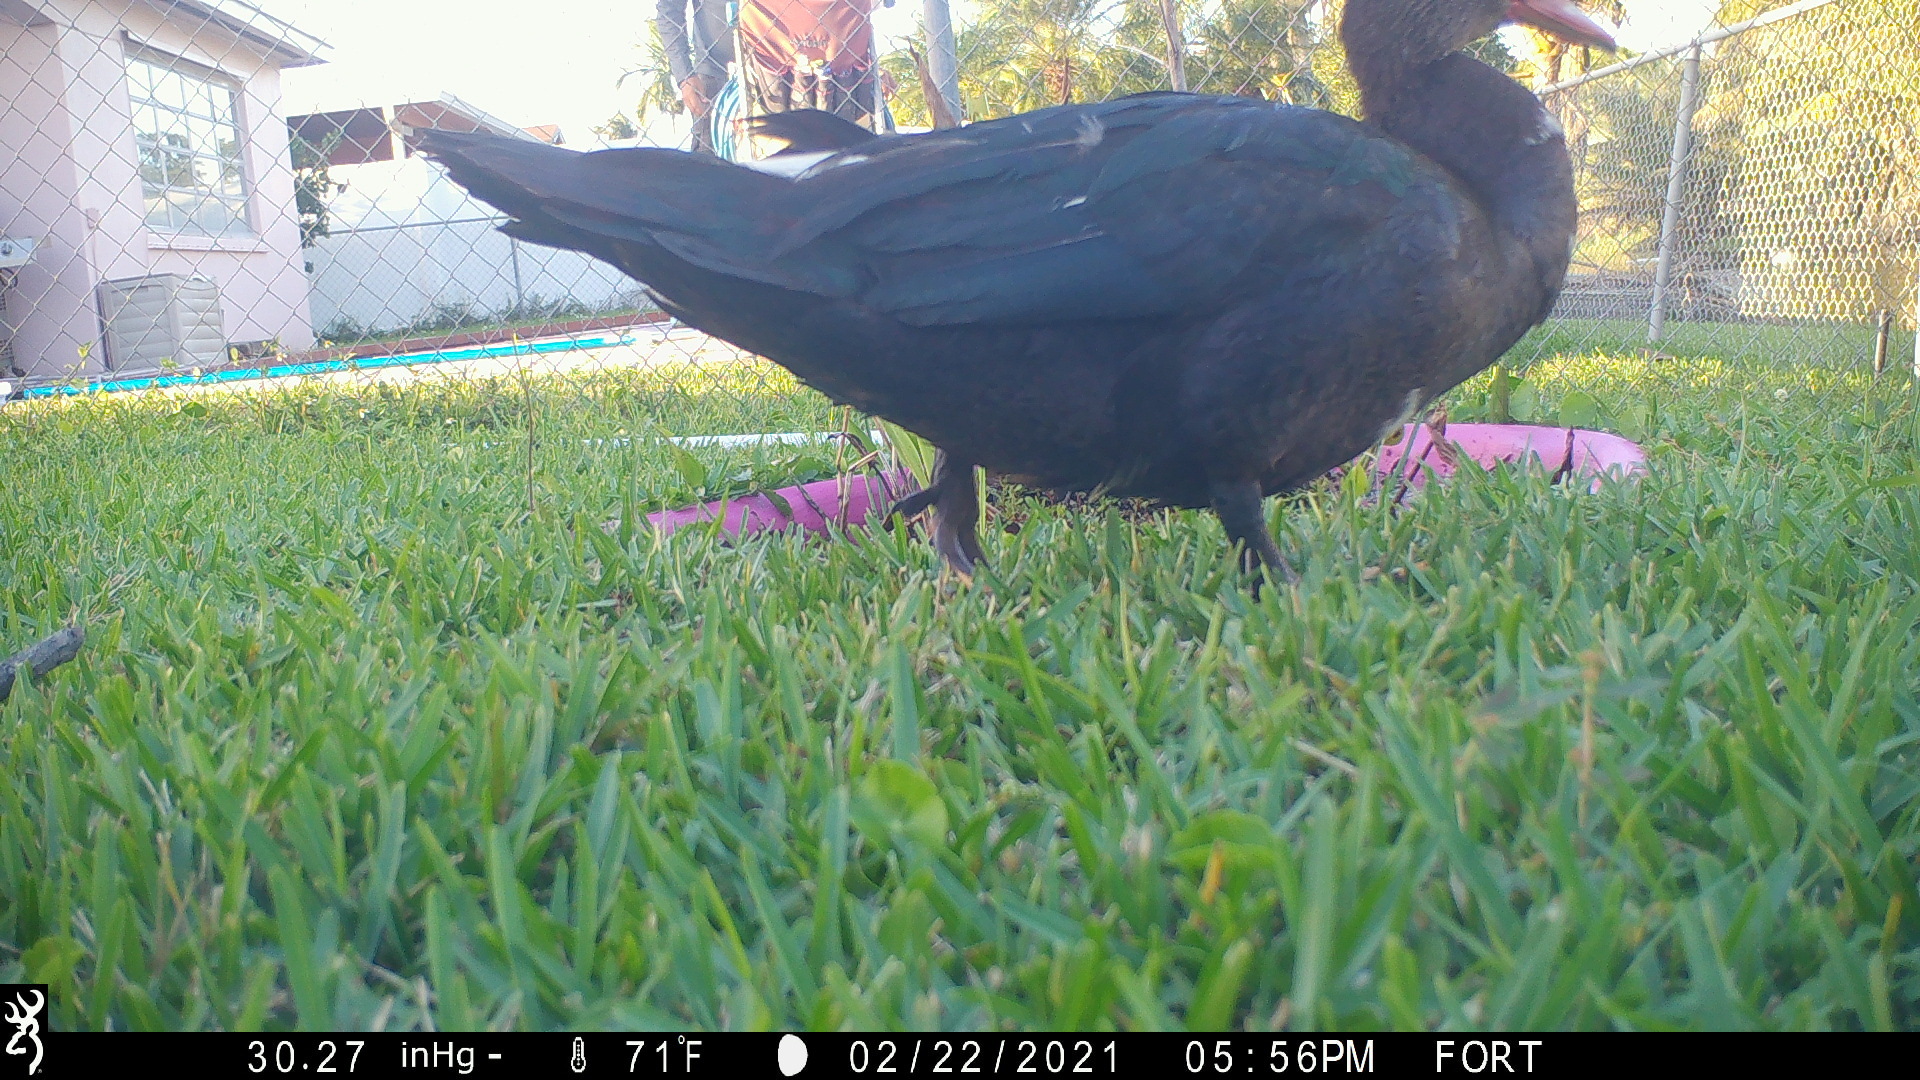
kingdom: Animalia
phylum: Chordata
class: Aves
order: Anseriformes
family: Anatidae
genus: Cairina
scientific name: Cairina moschata
